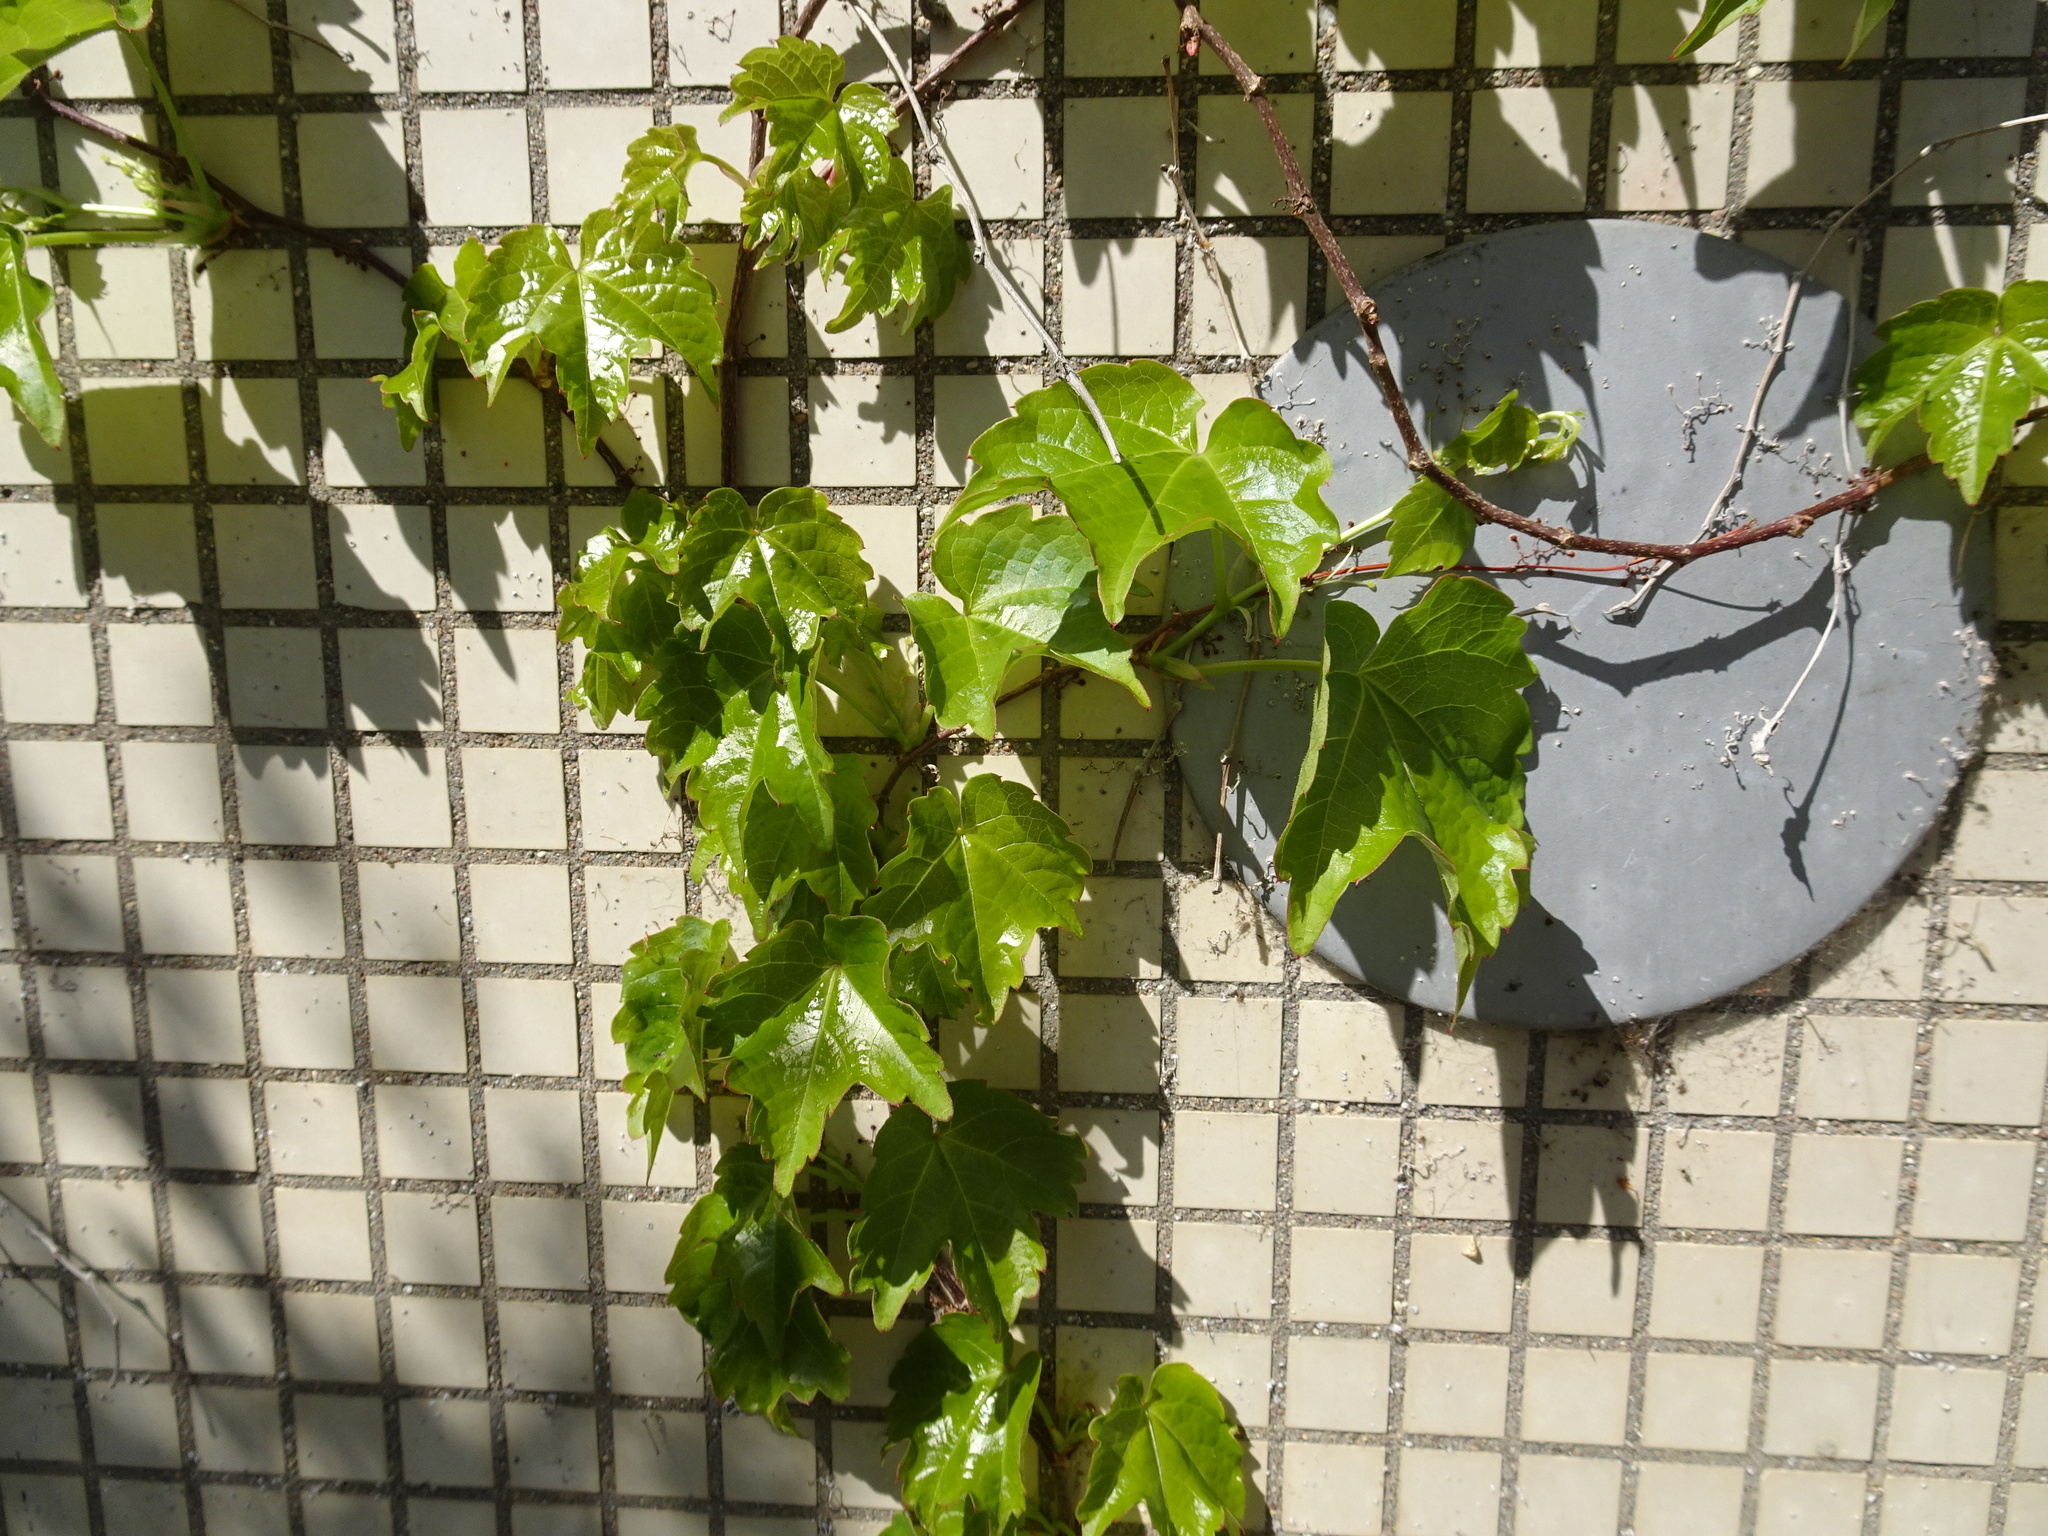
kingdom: Plantae
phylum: Tracheophyta
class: Magnoliopsida
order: Vitales
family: Vitaceae
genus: Parthenocissus
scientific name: Parthenocissus tricuspidata
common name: Boston ivy
